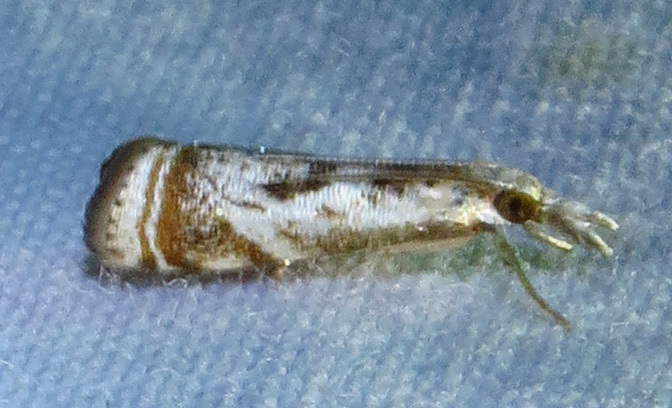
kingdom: Animalia
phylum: Arthropoda
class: Insecta
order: Lepidoptera
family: Crambidae
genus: Microcrambus
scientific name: Microcrambus elegans
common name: Elegant grass-veneer
